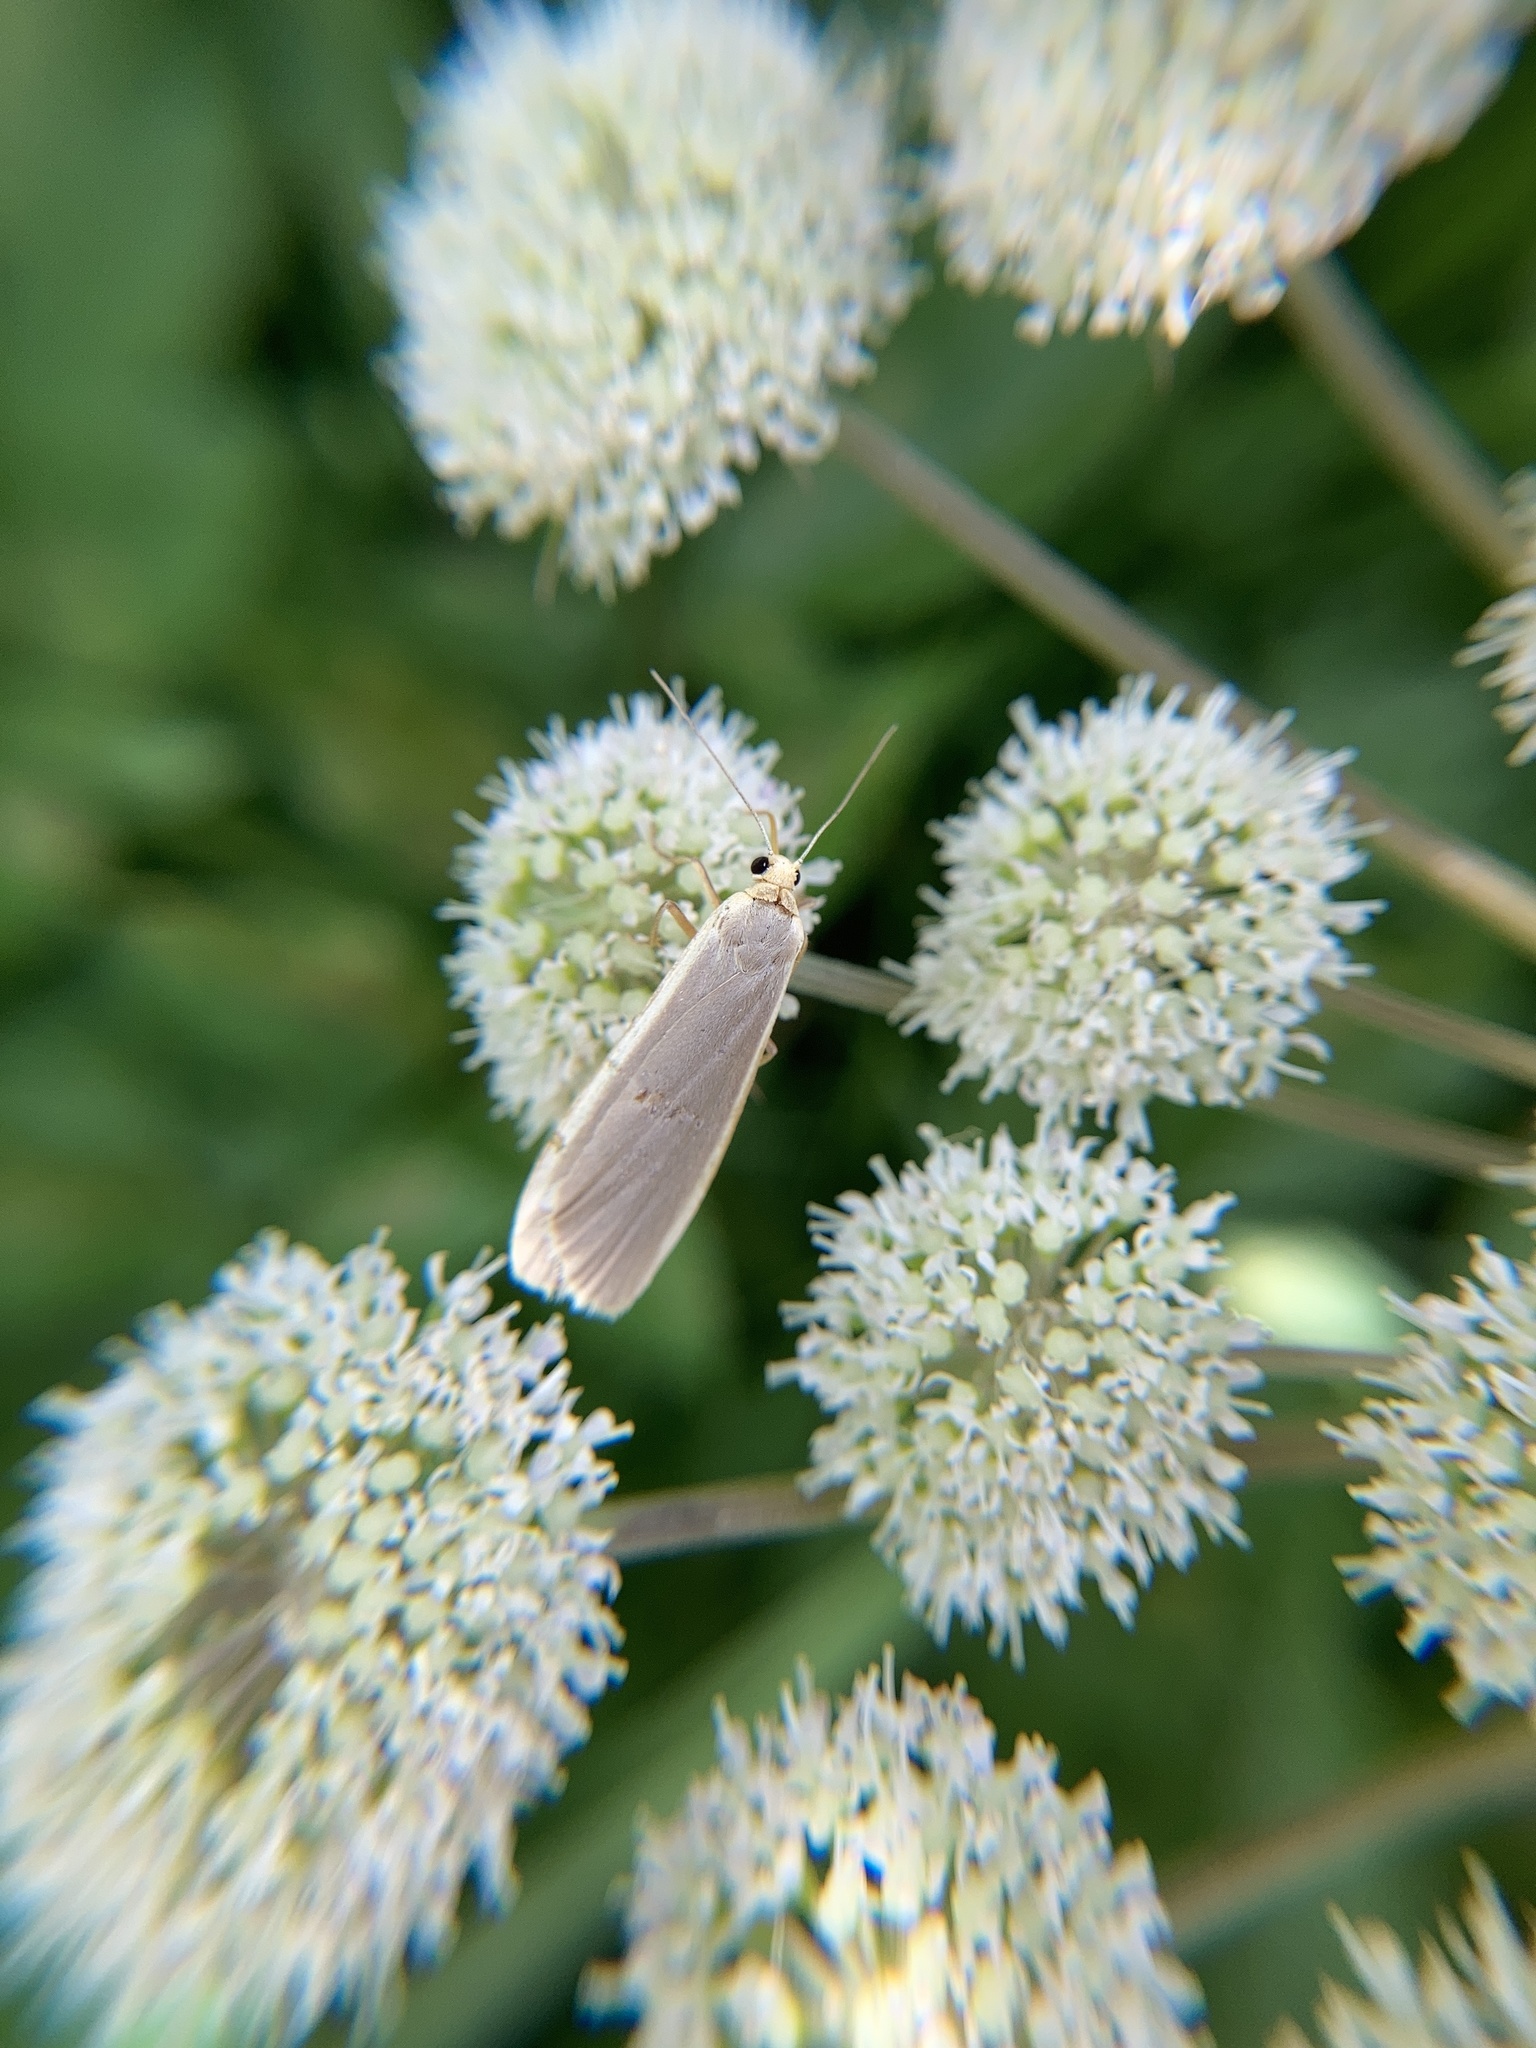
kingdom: Animalia
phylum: Arthropoda
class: Insecta
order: Lepidoptera
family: Erebidae
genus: Nyea
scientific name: Nyea lurideola
